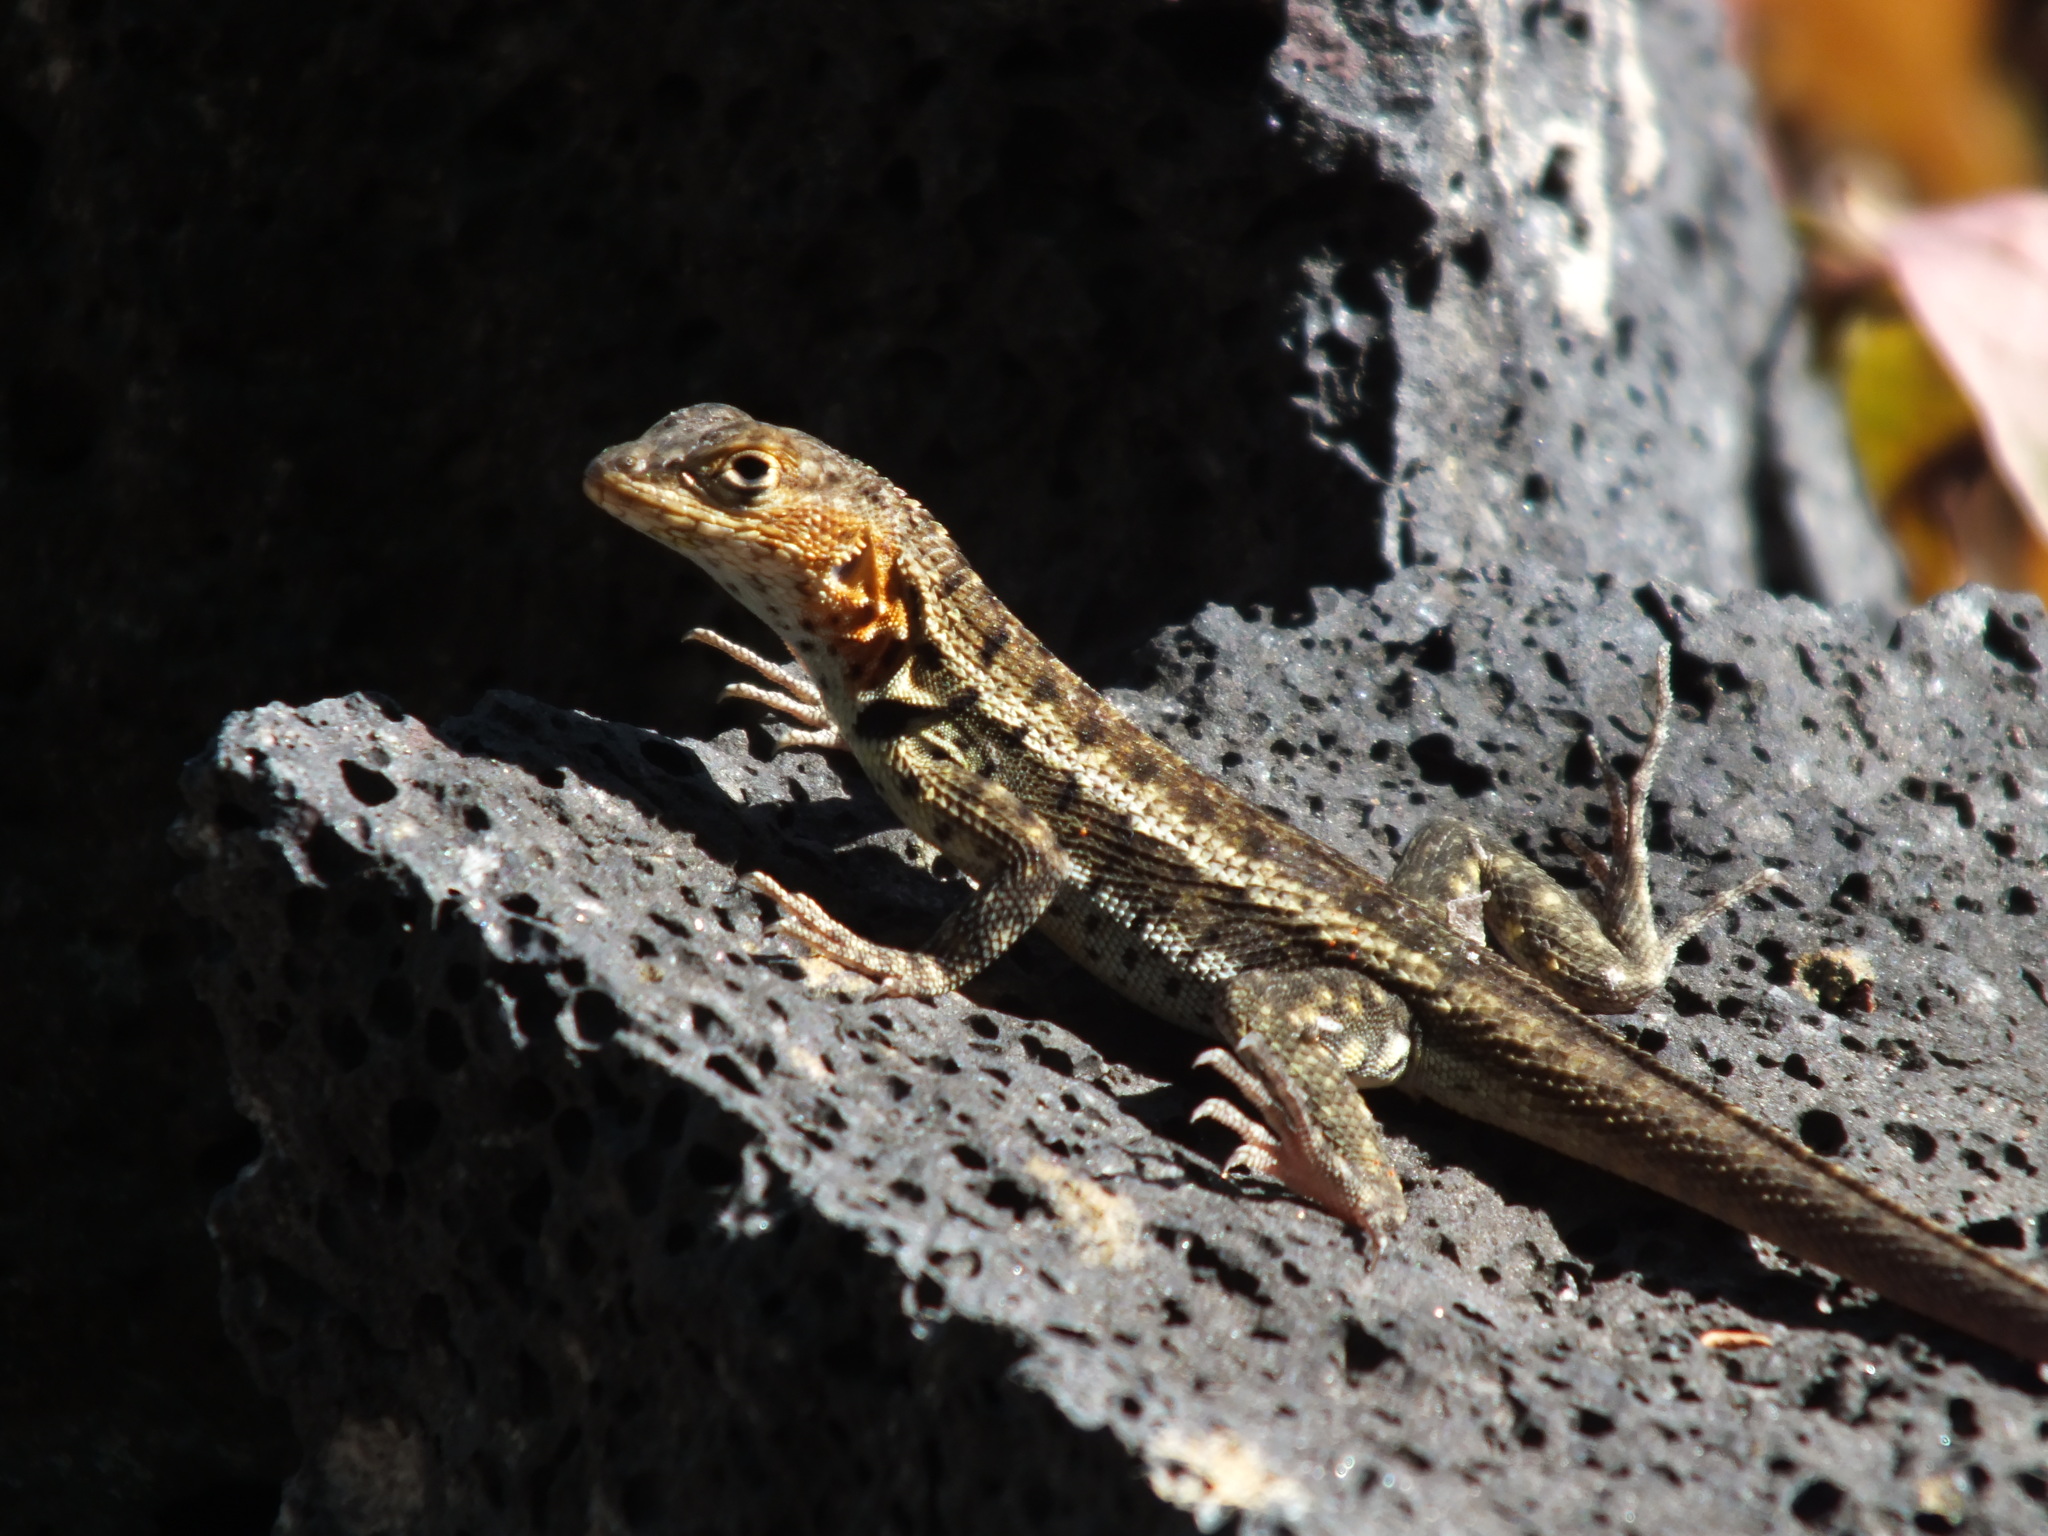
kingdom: Animalia
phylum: Chordata
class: Squamata
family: Tropiduridae
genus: Microlophus
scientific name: Microlophus albemarlensis
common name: Galapagos lava lizard
